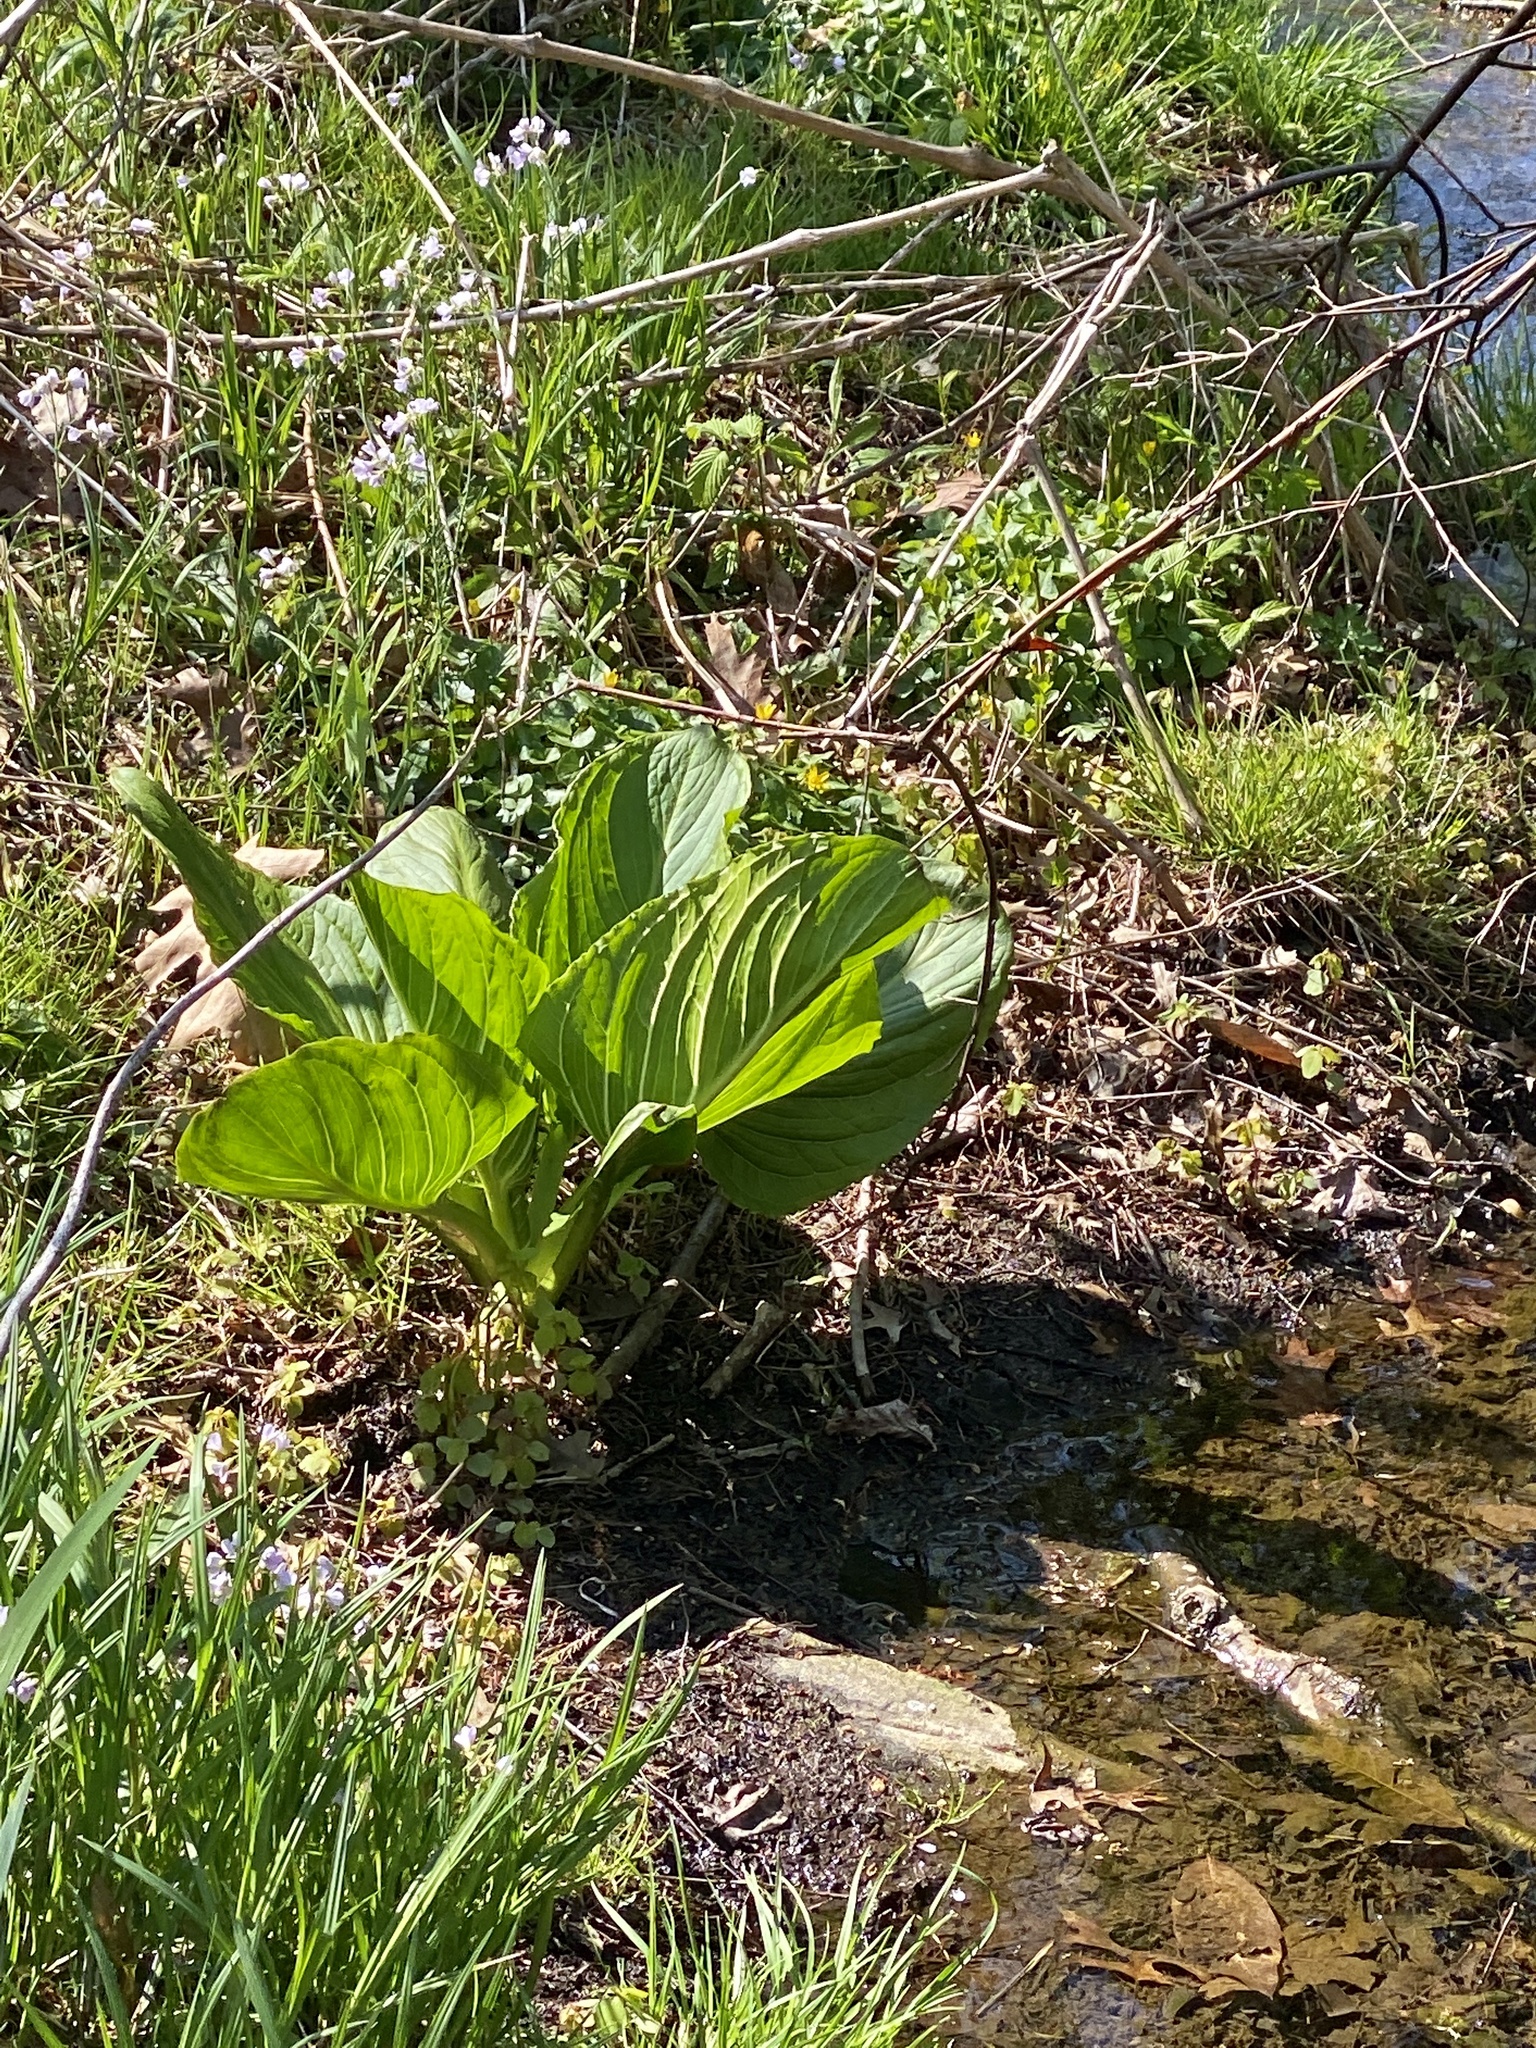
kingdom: Plantae
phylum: Tracheophyta
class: Liliopsida
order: Alismatales
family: Araceae
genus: Symplocarpus
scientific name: Symplocarpus foetidus
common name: Eastern skunk cabbage
